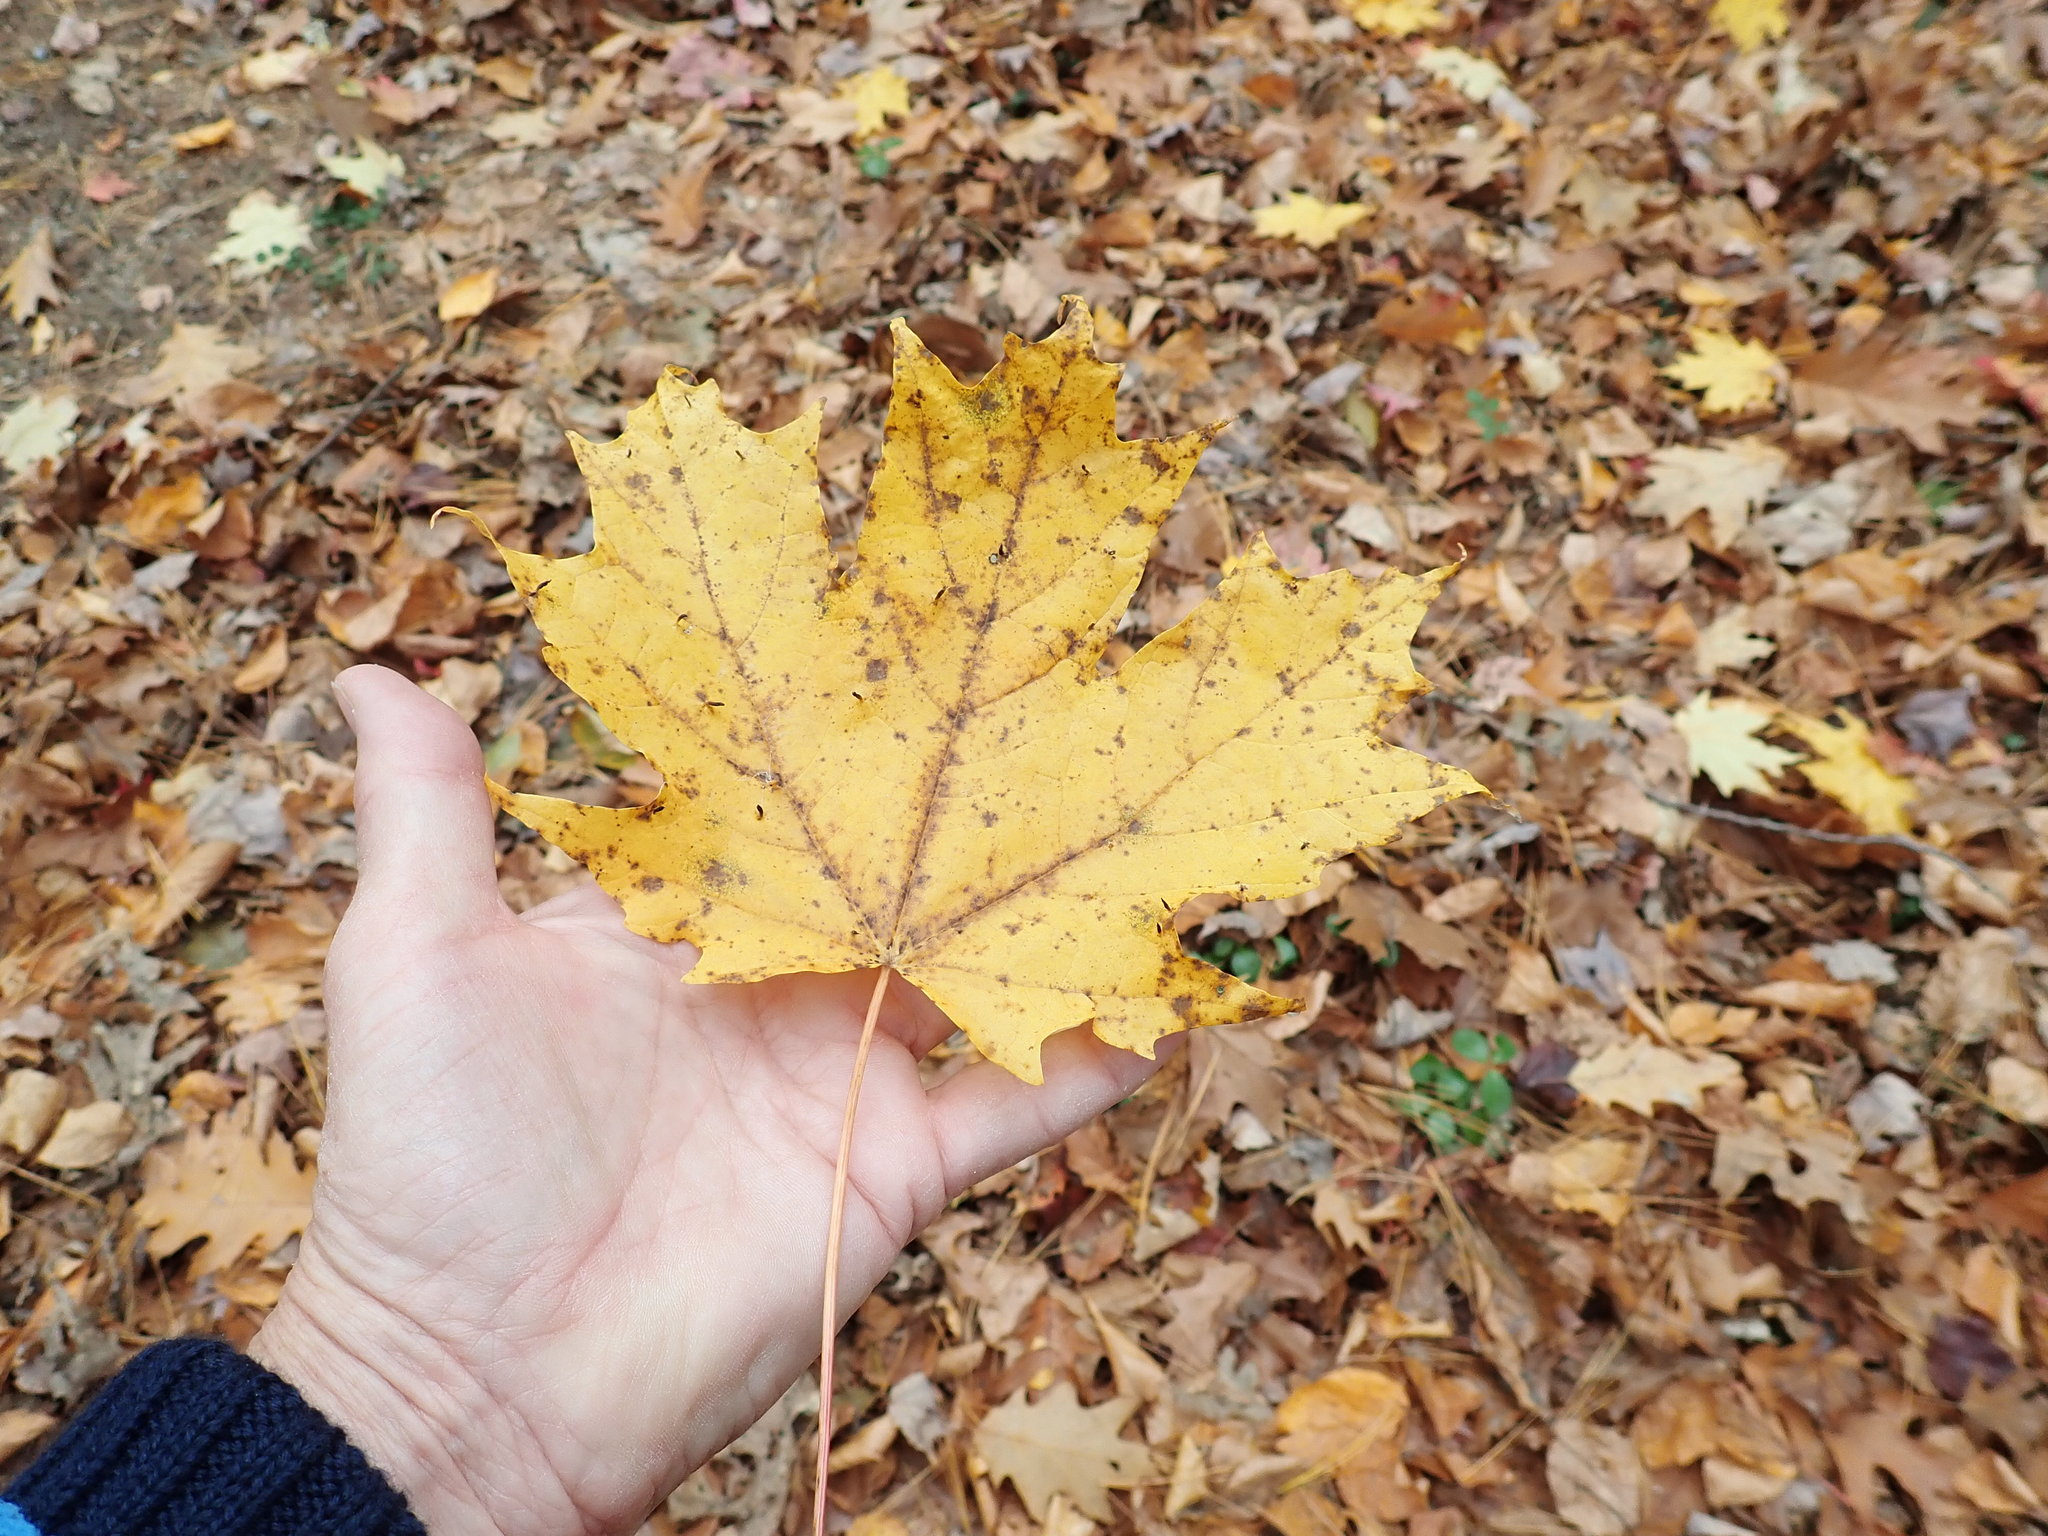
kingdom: Plantae
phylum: Tracheophyta
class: Magnoliopsida
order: Sapindales
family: Sapindaceae
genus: Acer
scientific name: Acer saccharum
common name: Sugar maple
